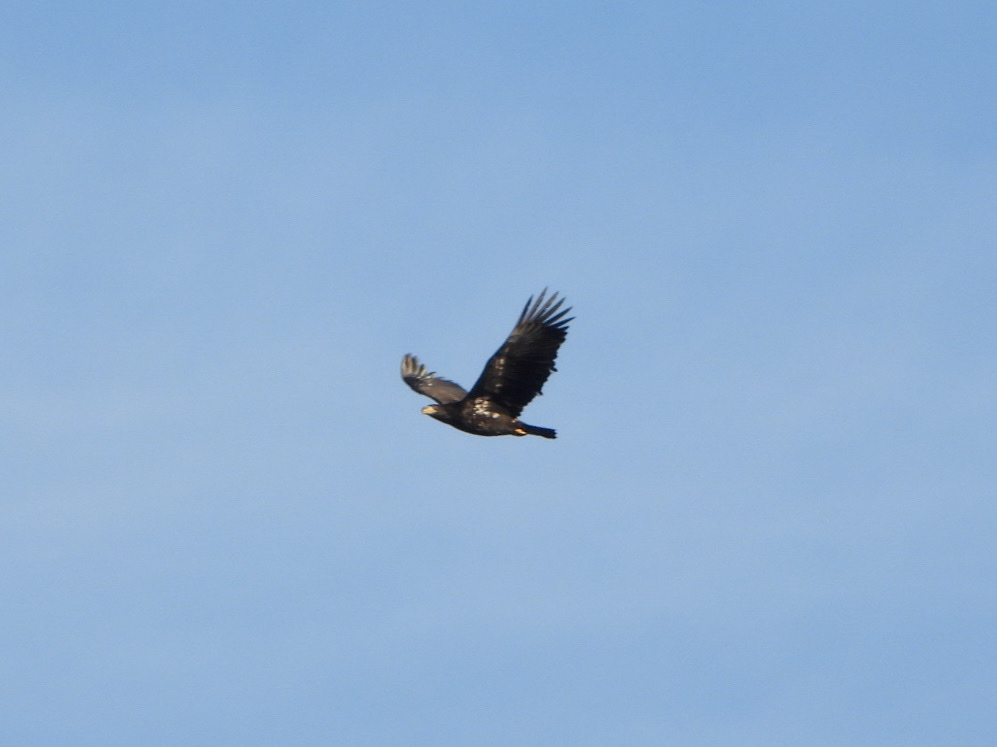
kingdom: Animalia
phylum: Chordata
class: Aves
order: Accipitriformes
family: Accipitridae
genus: Haliaeetus
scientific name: Haliaeetus leucocephalus
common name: Bald eagle
